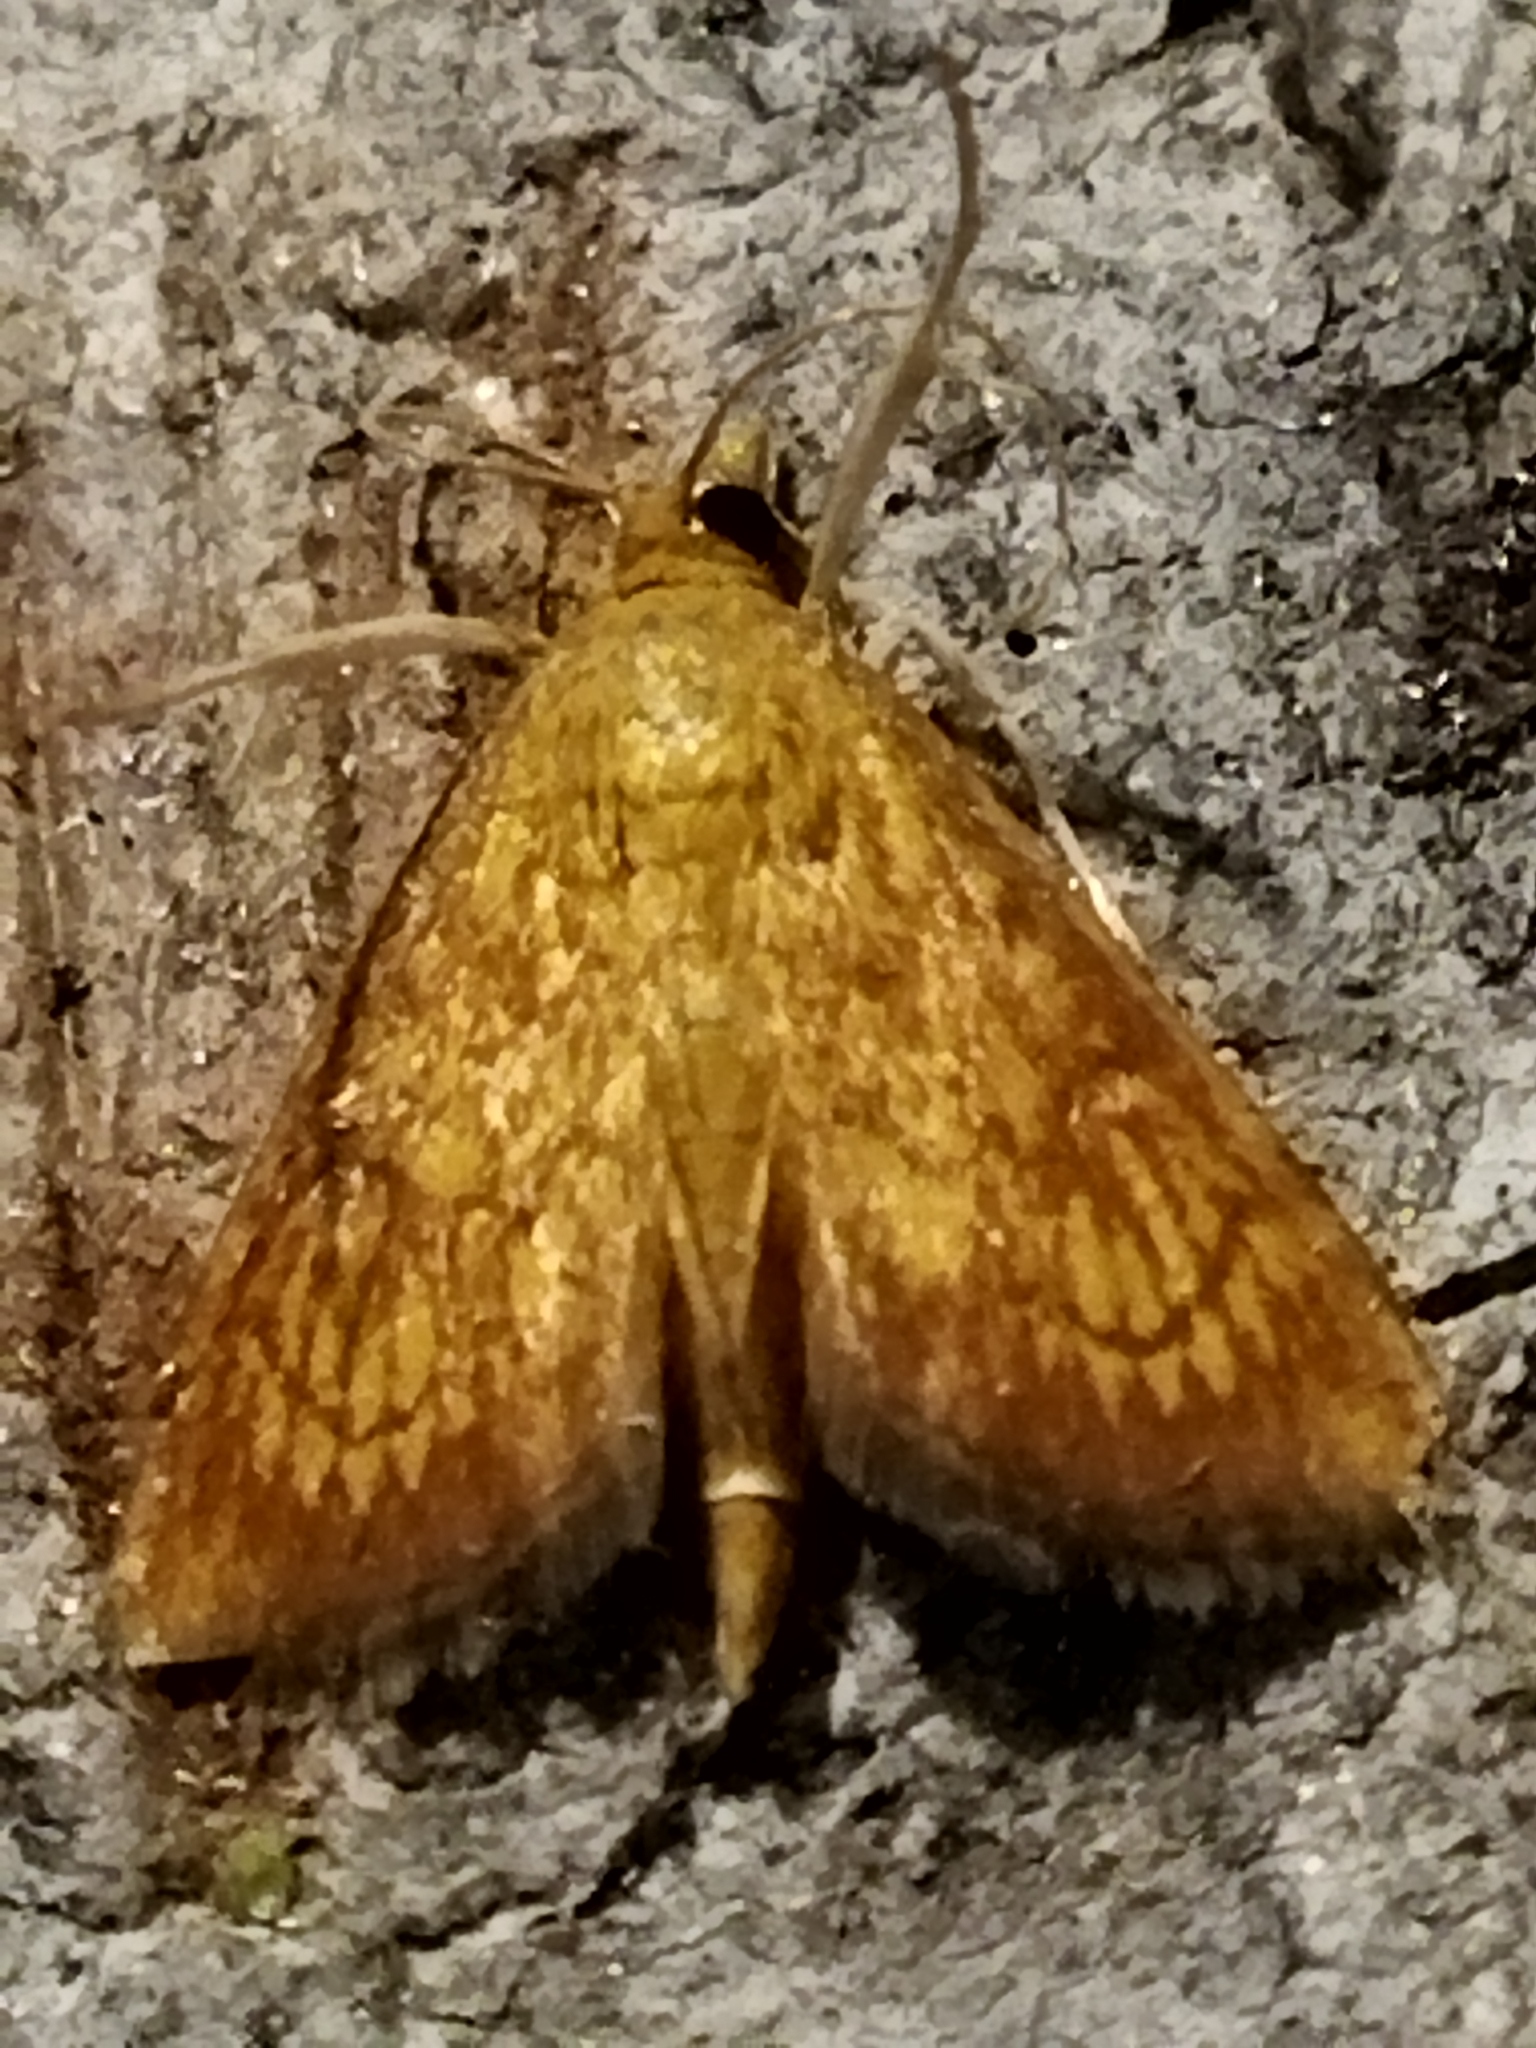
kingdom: Animalia
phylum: Arthropoda
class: Insecta
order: Lepidoptera
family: Crambidae
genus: Ecpyrrhorrhoe
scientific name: Ecpyrrhorrhoe rubiginalis
